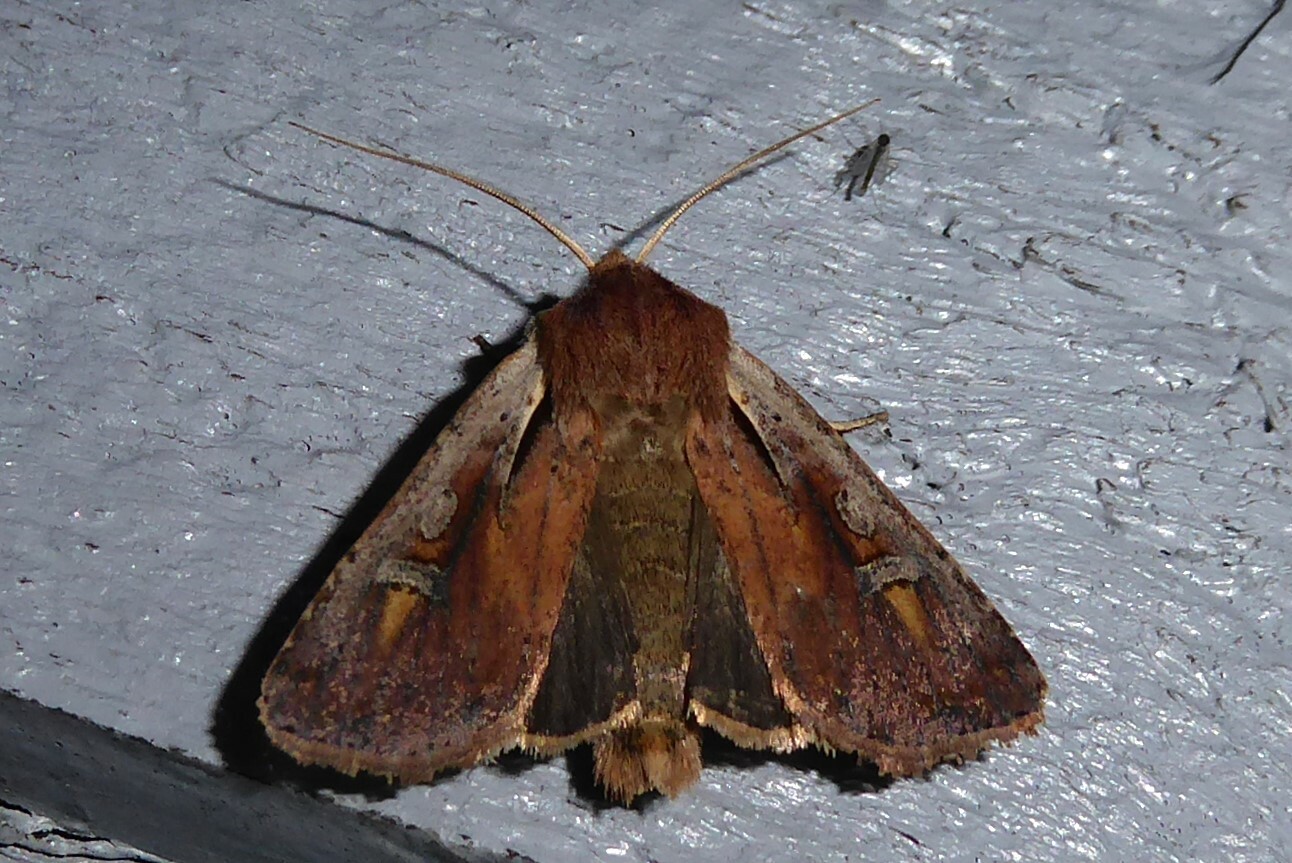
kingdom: Animalia
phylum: Arthropoda
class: Insecta
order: Lepidoptera
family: Noctuidae
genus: Ichneutica
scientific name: Ichneutica atristriga
